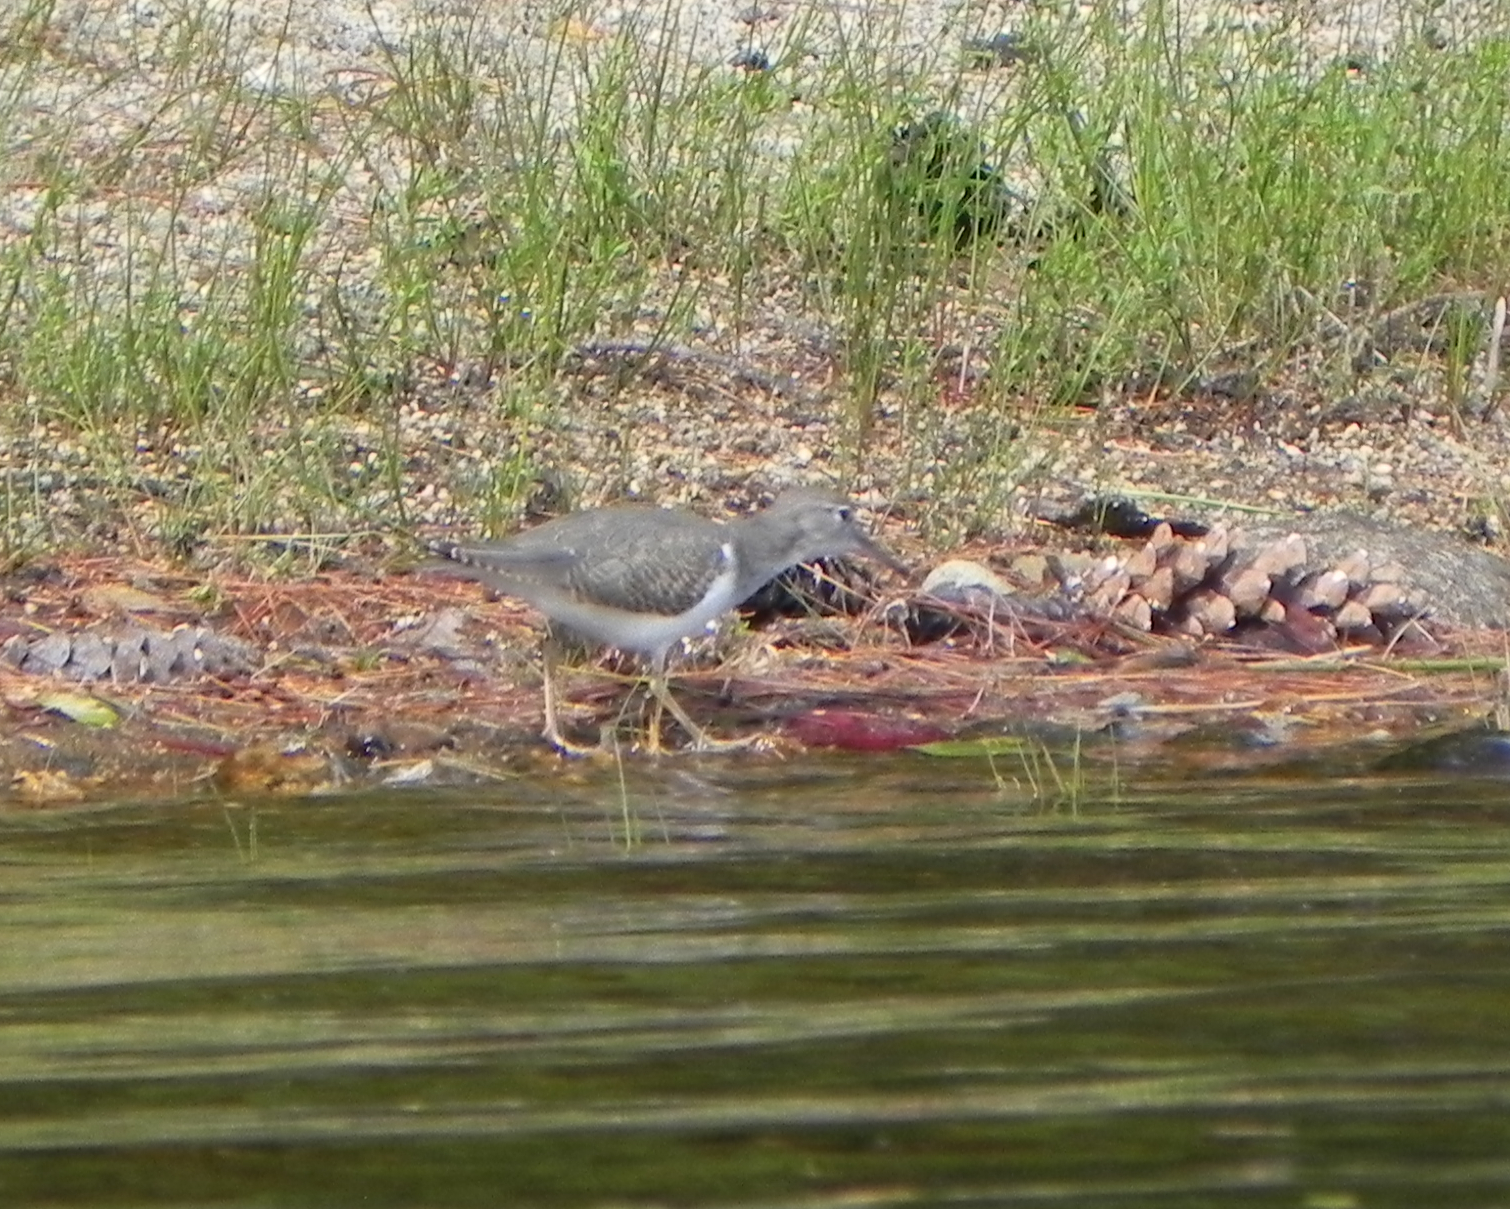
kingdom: Animalia
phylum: Chordata
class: Aves
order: Charadriiformes
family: Scolopacidae
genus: Actitis
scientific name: Actitis macularius
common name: Spotted sandpiper
